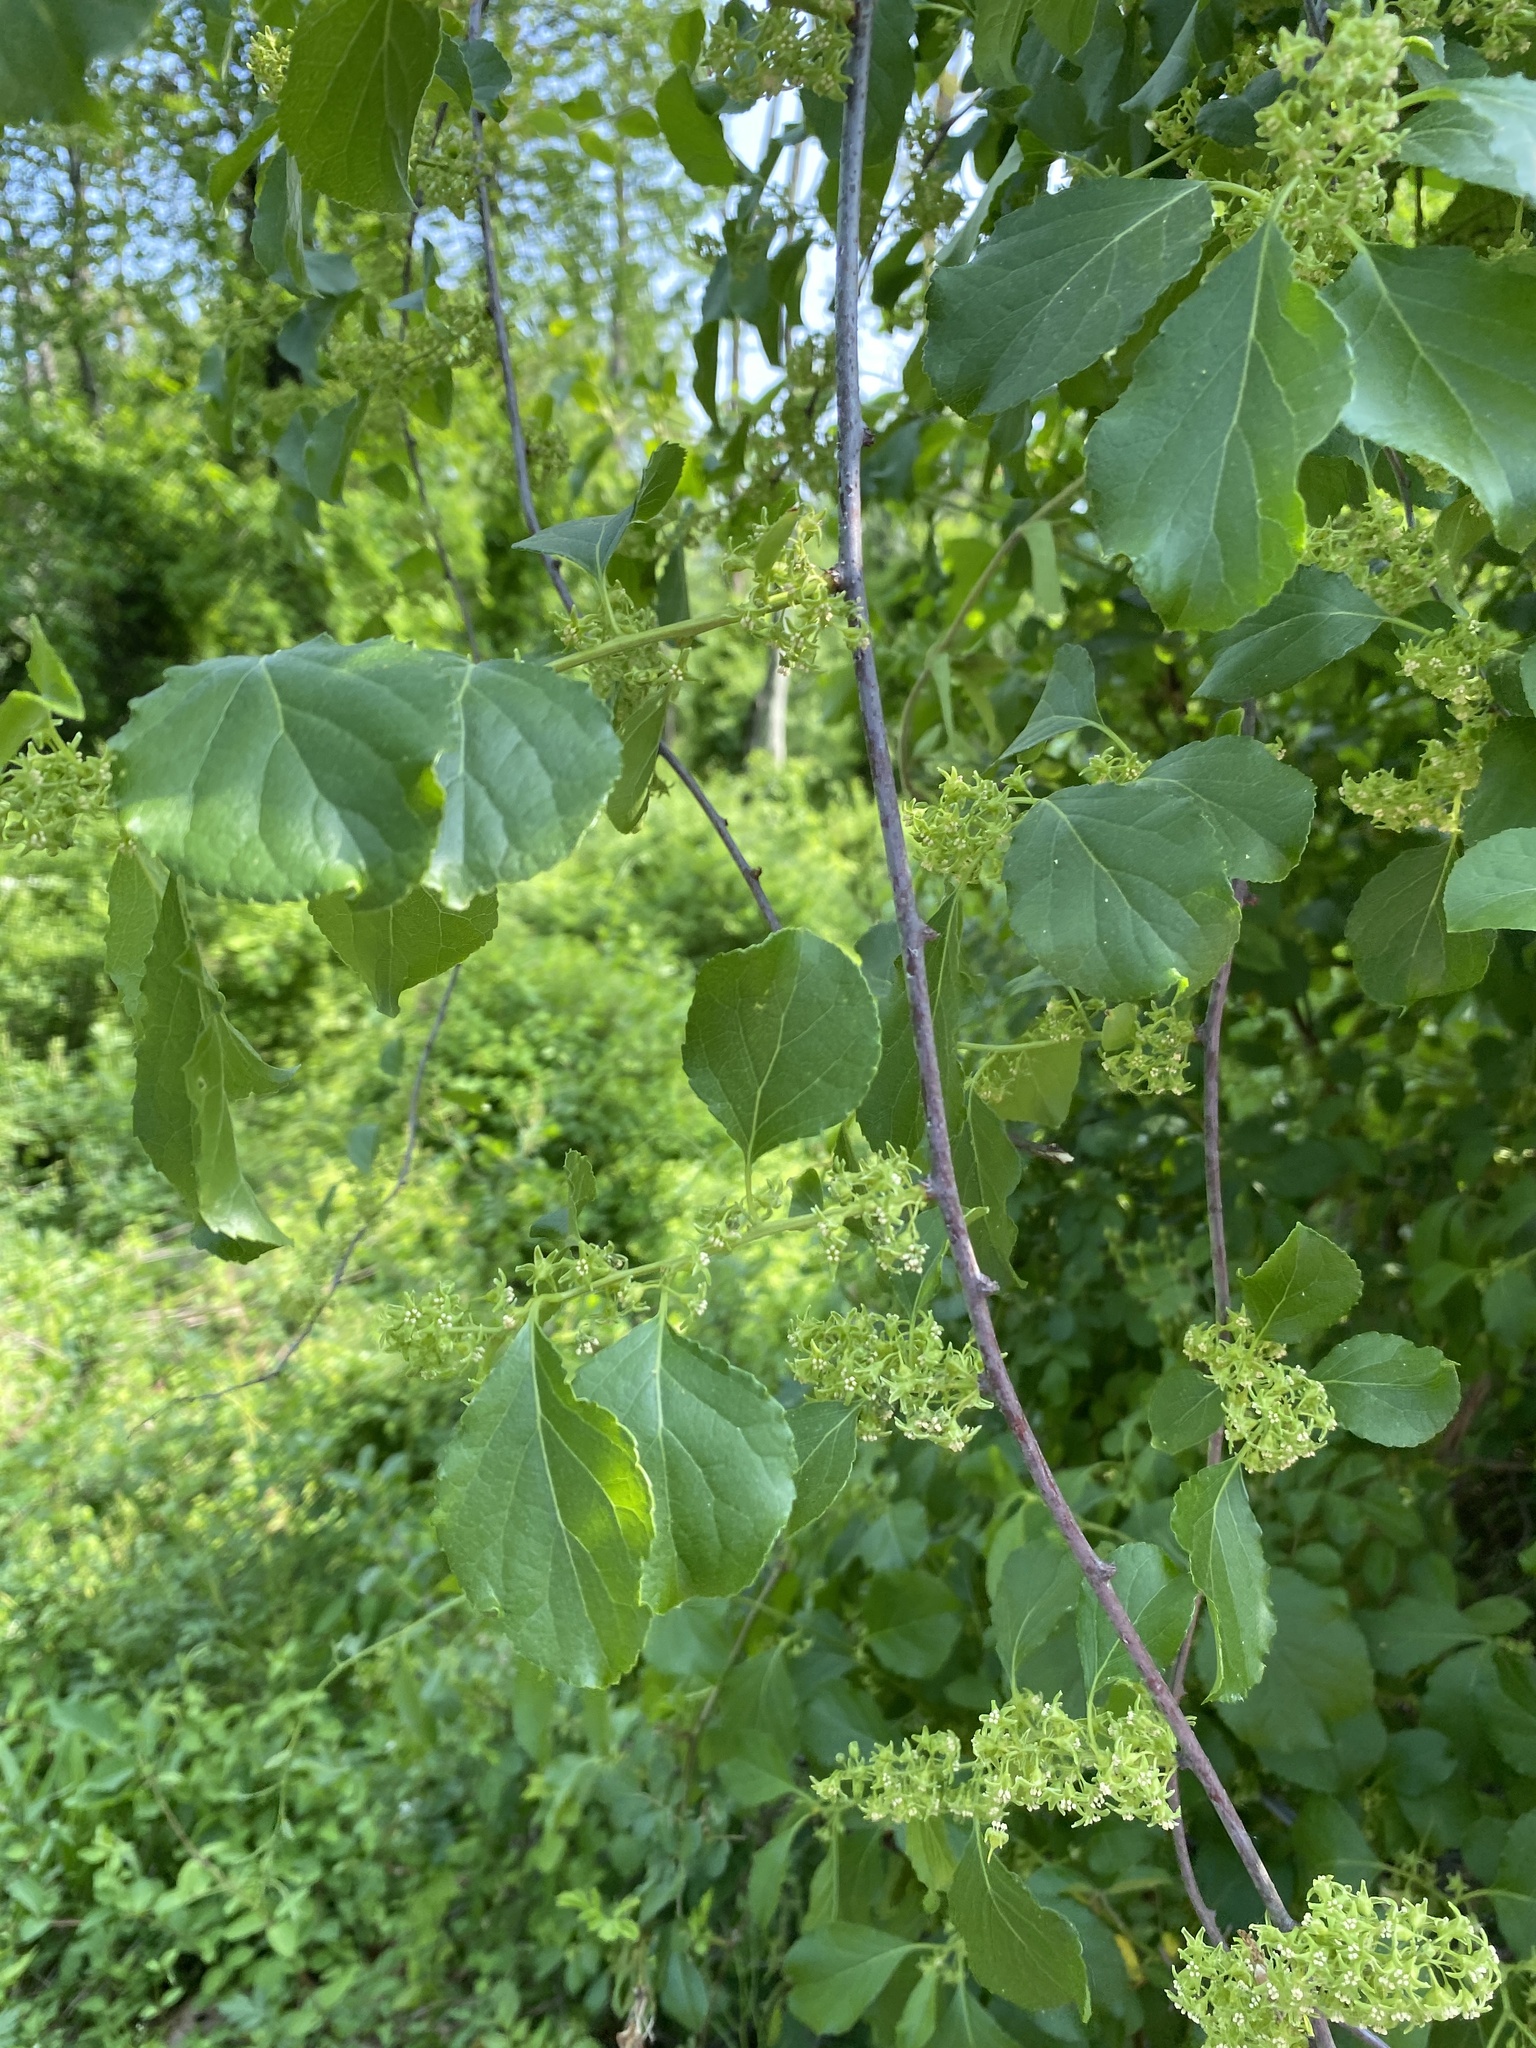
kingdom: Plantae
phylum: Tracheophyta
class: Magnoliopsida
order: Celastrales
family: Celastraceae
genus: Celastrus
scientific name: Celastrus orbiculatus
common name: Oriental bittersweet
